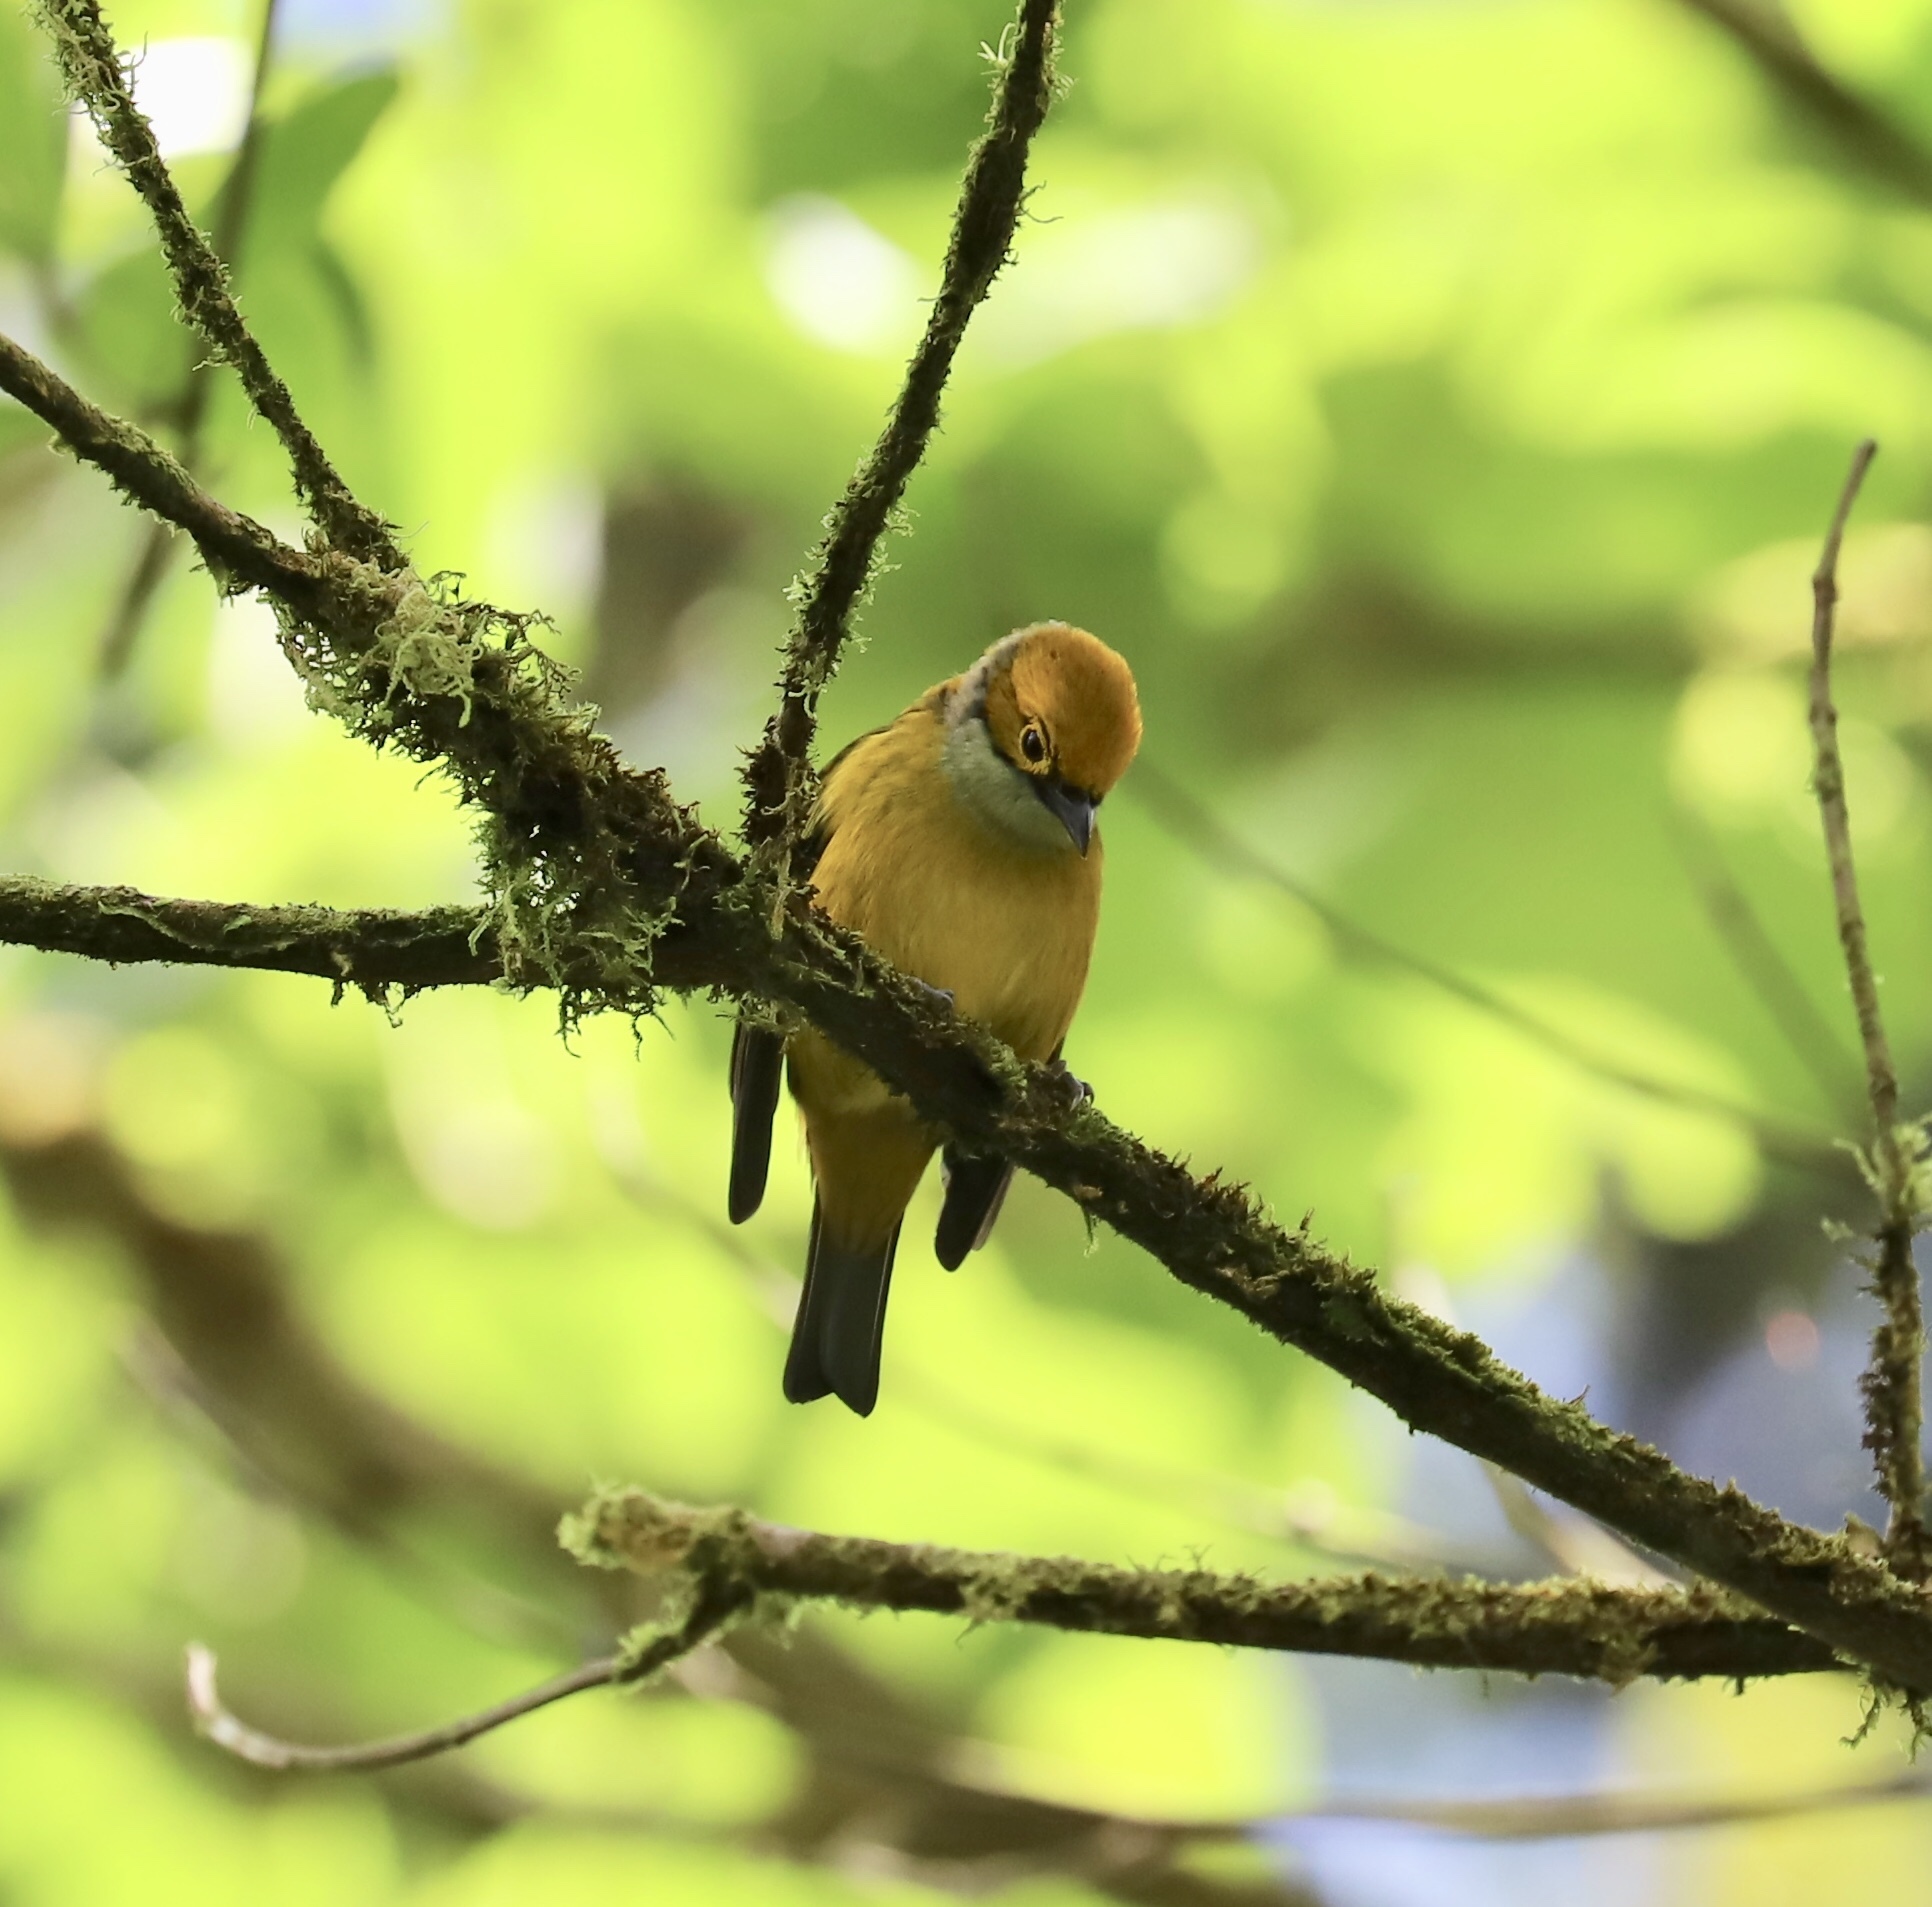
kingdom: Animalia
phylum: Chordata
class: Aves
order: Passeriformes
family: Thraupidae
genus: Tangara
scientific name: Tangara icterocephala
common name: Silver-throated tanager
